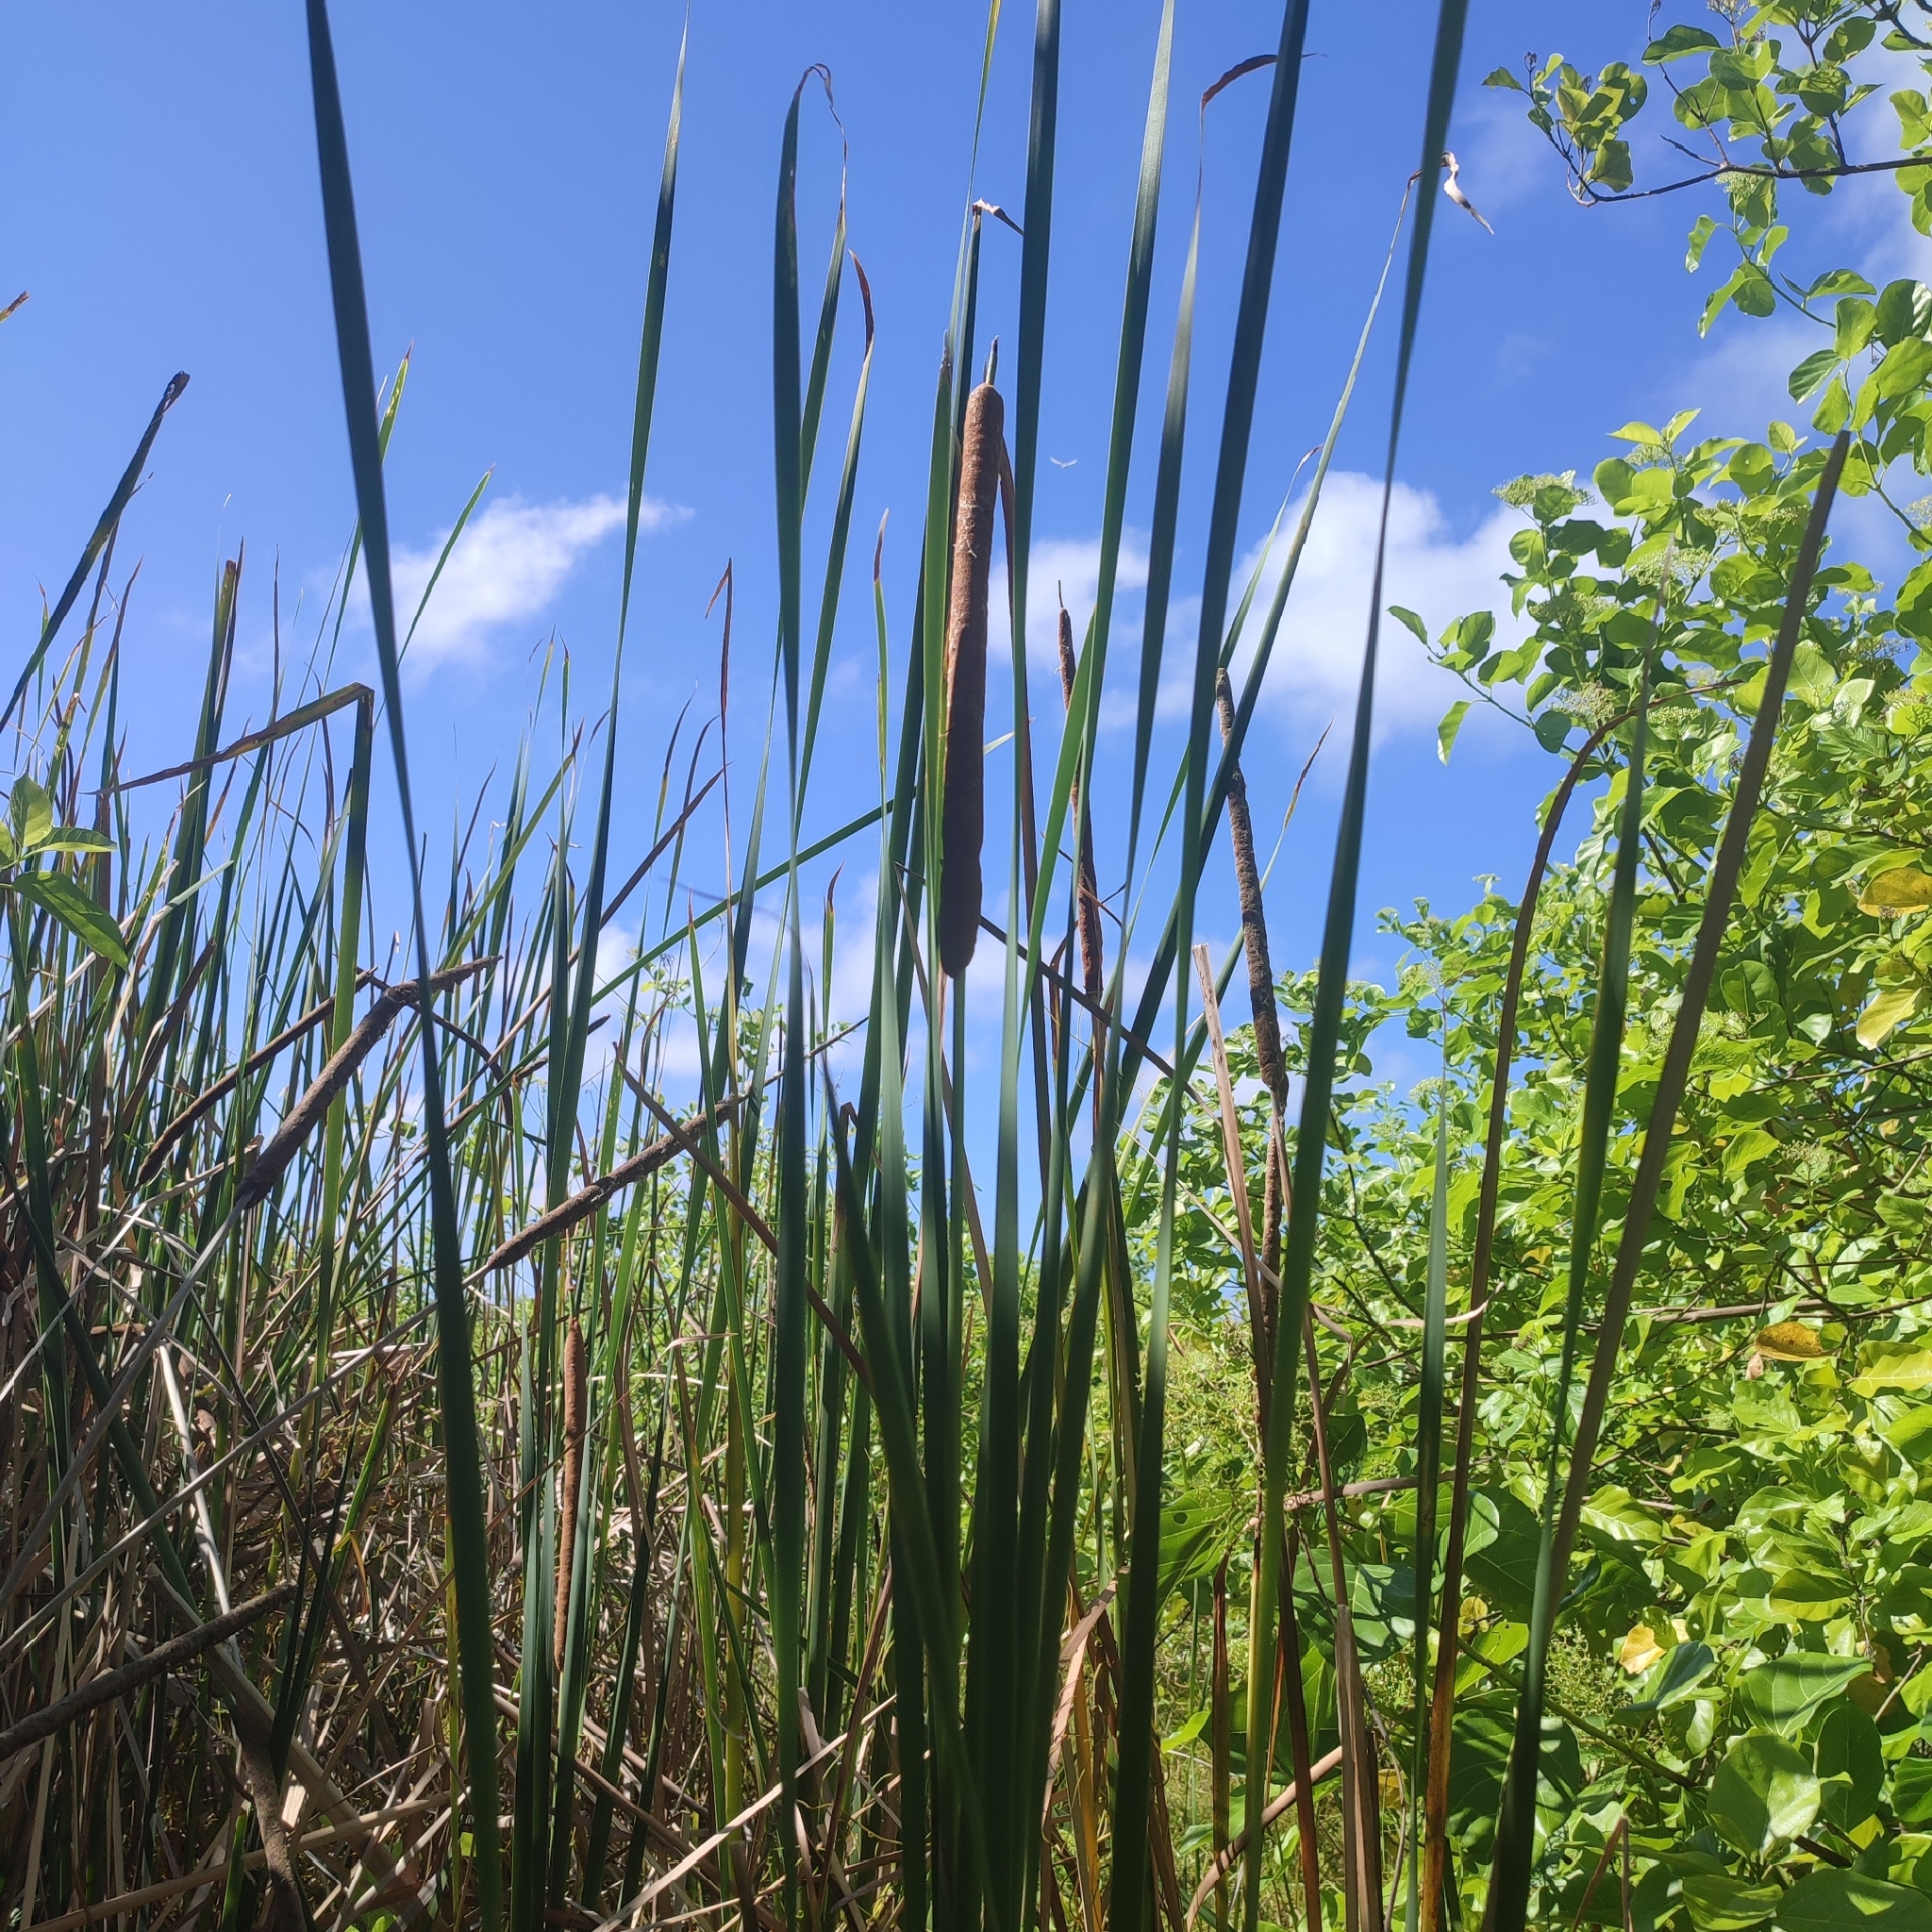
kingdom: Plantae
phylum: Tracheophyta
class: Liliopsida
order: Poales
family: Typhaceae
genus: Typha
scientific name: Typha domingensis
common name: Southern cattail
